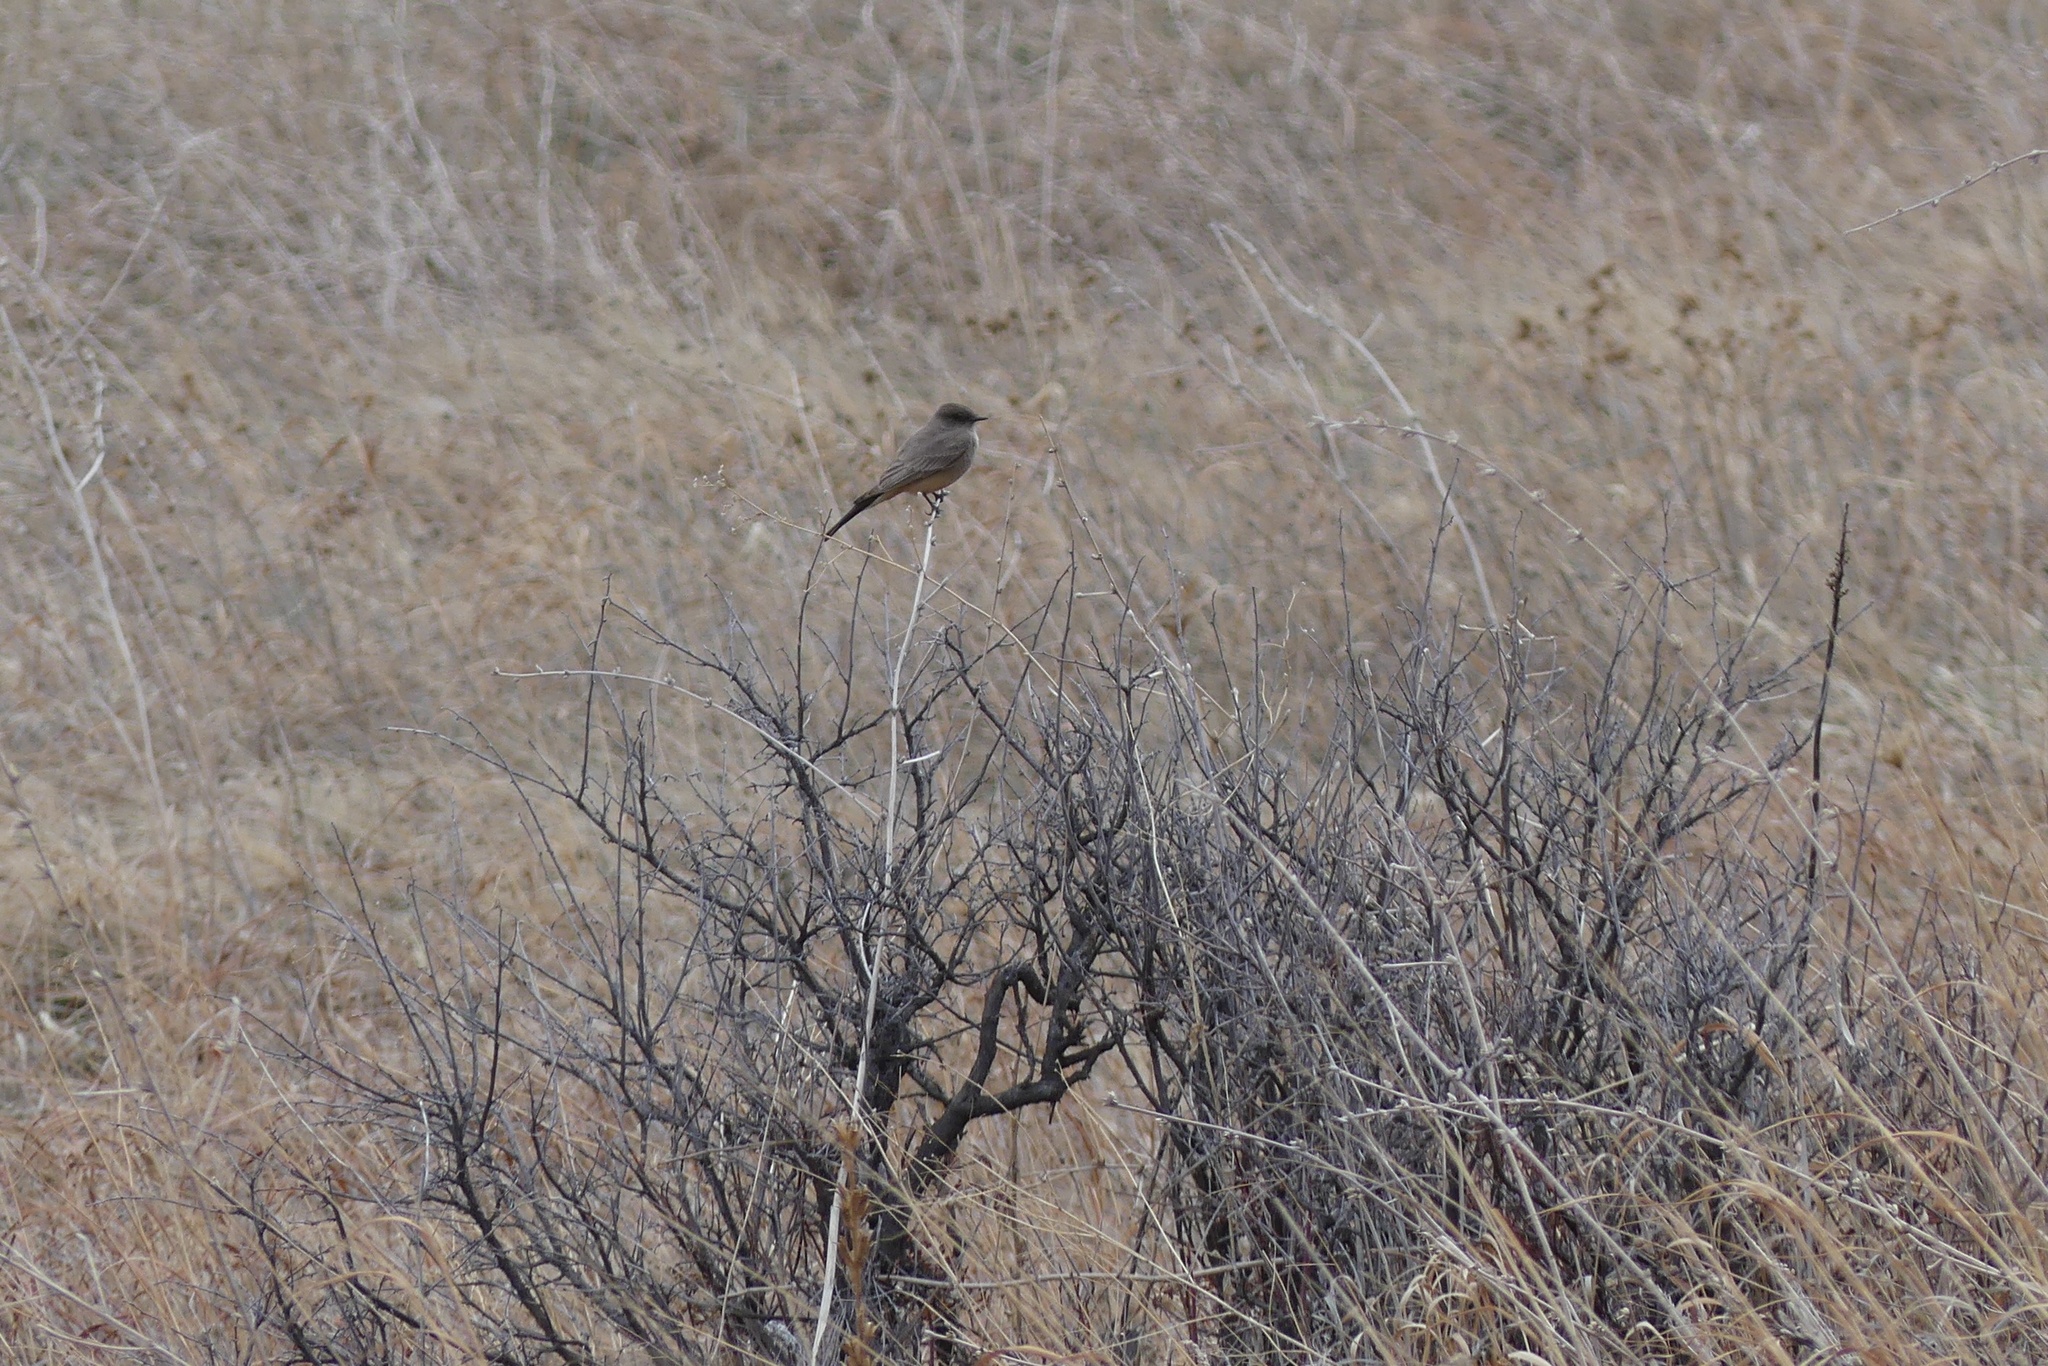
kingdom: Animalia
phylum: Chordata
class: Aves
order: Passeriformes
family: Tyrannidae
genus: Sayornis
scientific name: Sayornis saya
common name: Say's phoebe
